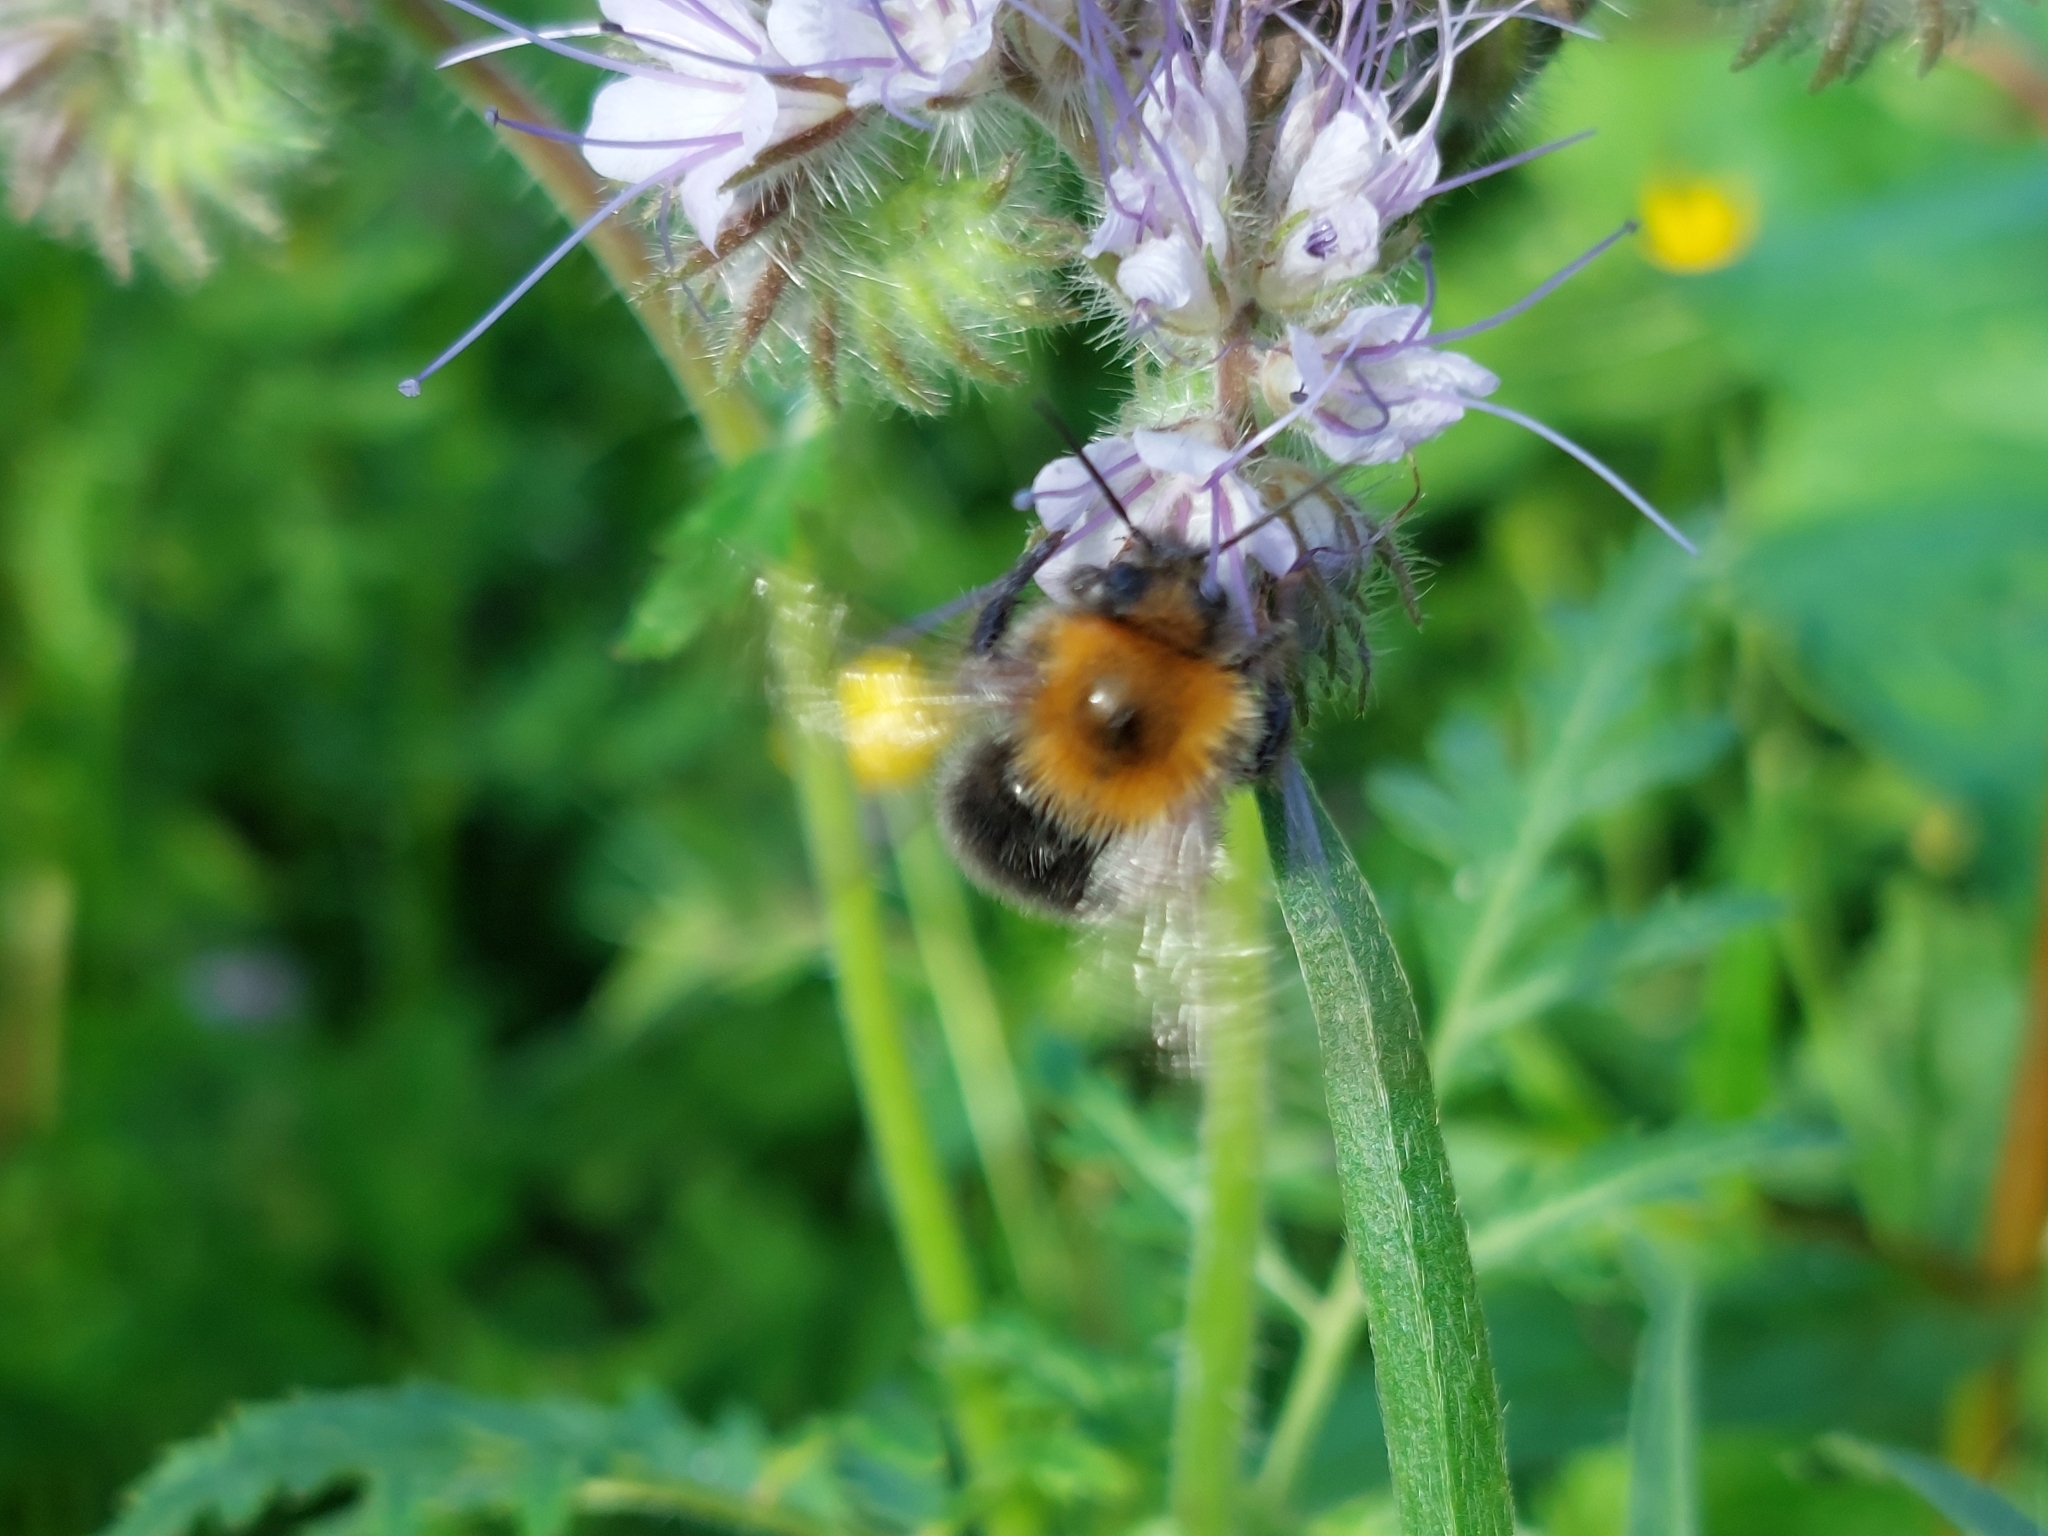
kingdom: Animalia
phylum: Arthropoda
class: Insecta
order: Hymenoptera
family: Apidae
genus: Bombus
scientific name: Bombus hypnorum
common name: New garden bumblebee
